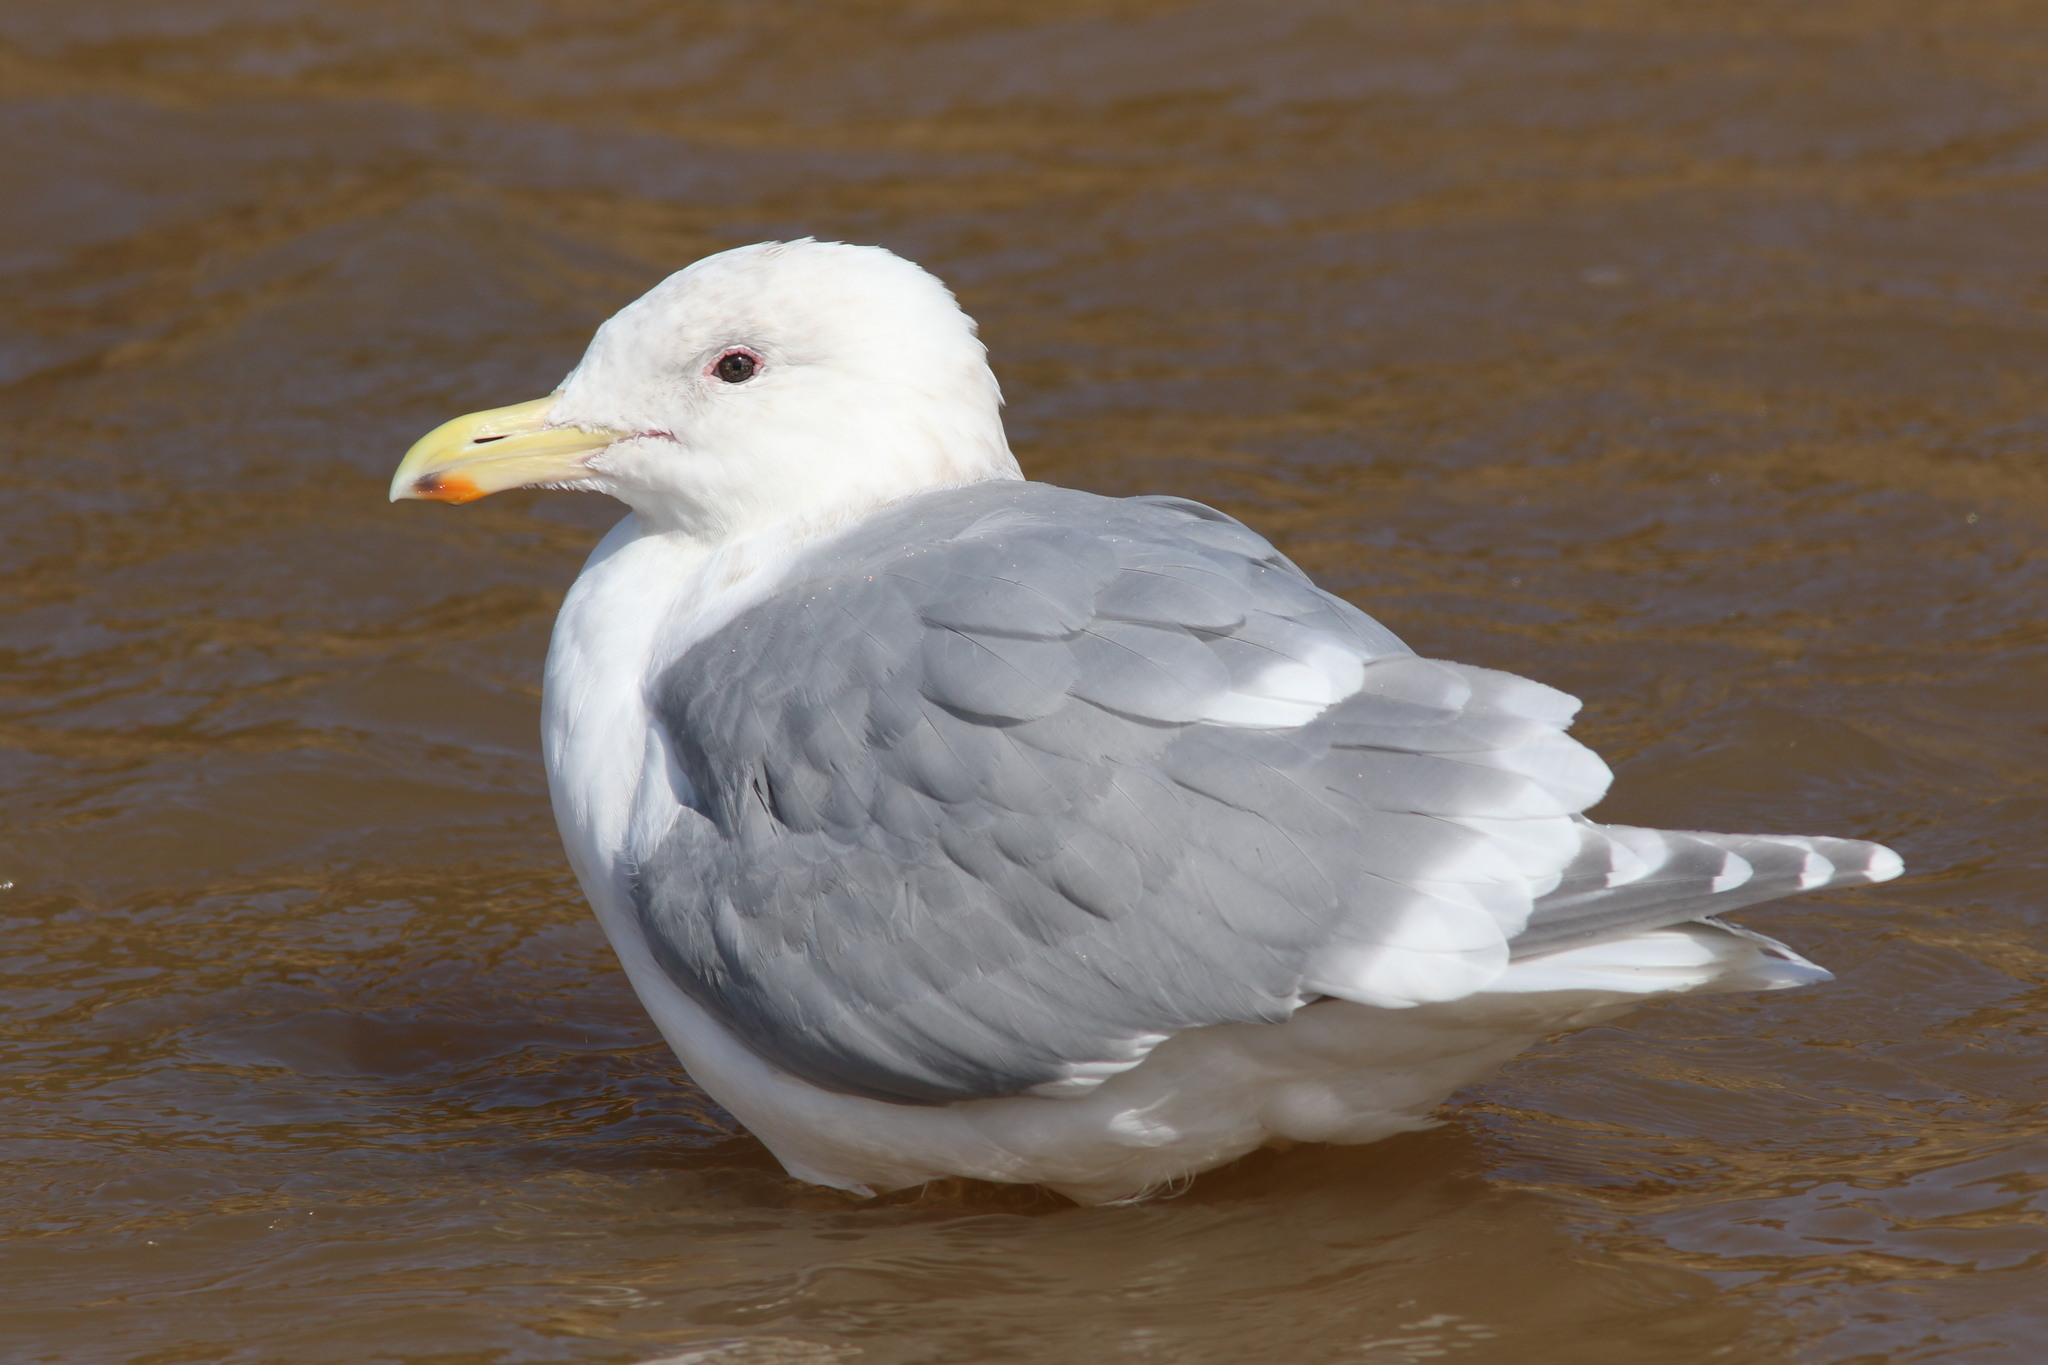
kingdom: Animalia
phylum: Chordata
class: Aves
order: Charadriiformes
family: Laridae
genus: Larus
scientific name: Larus glaucescens
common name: Glaucous-winged gull
